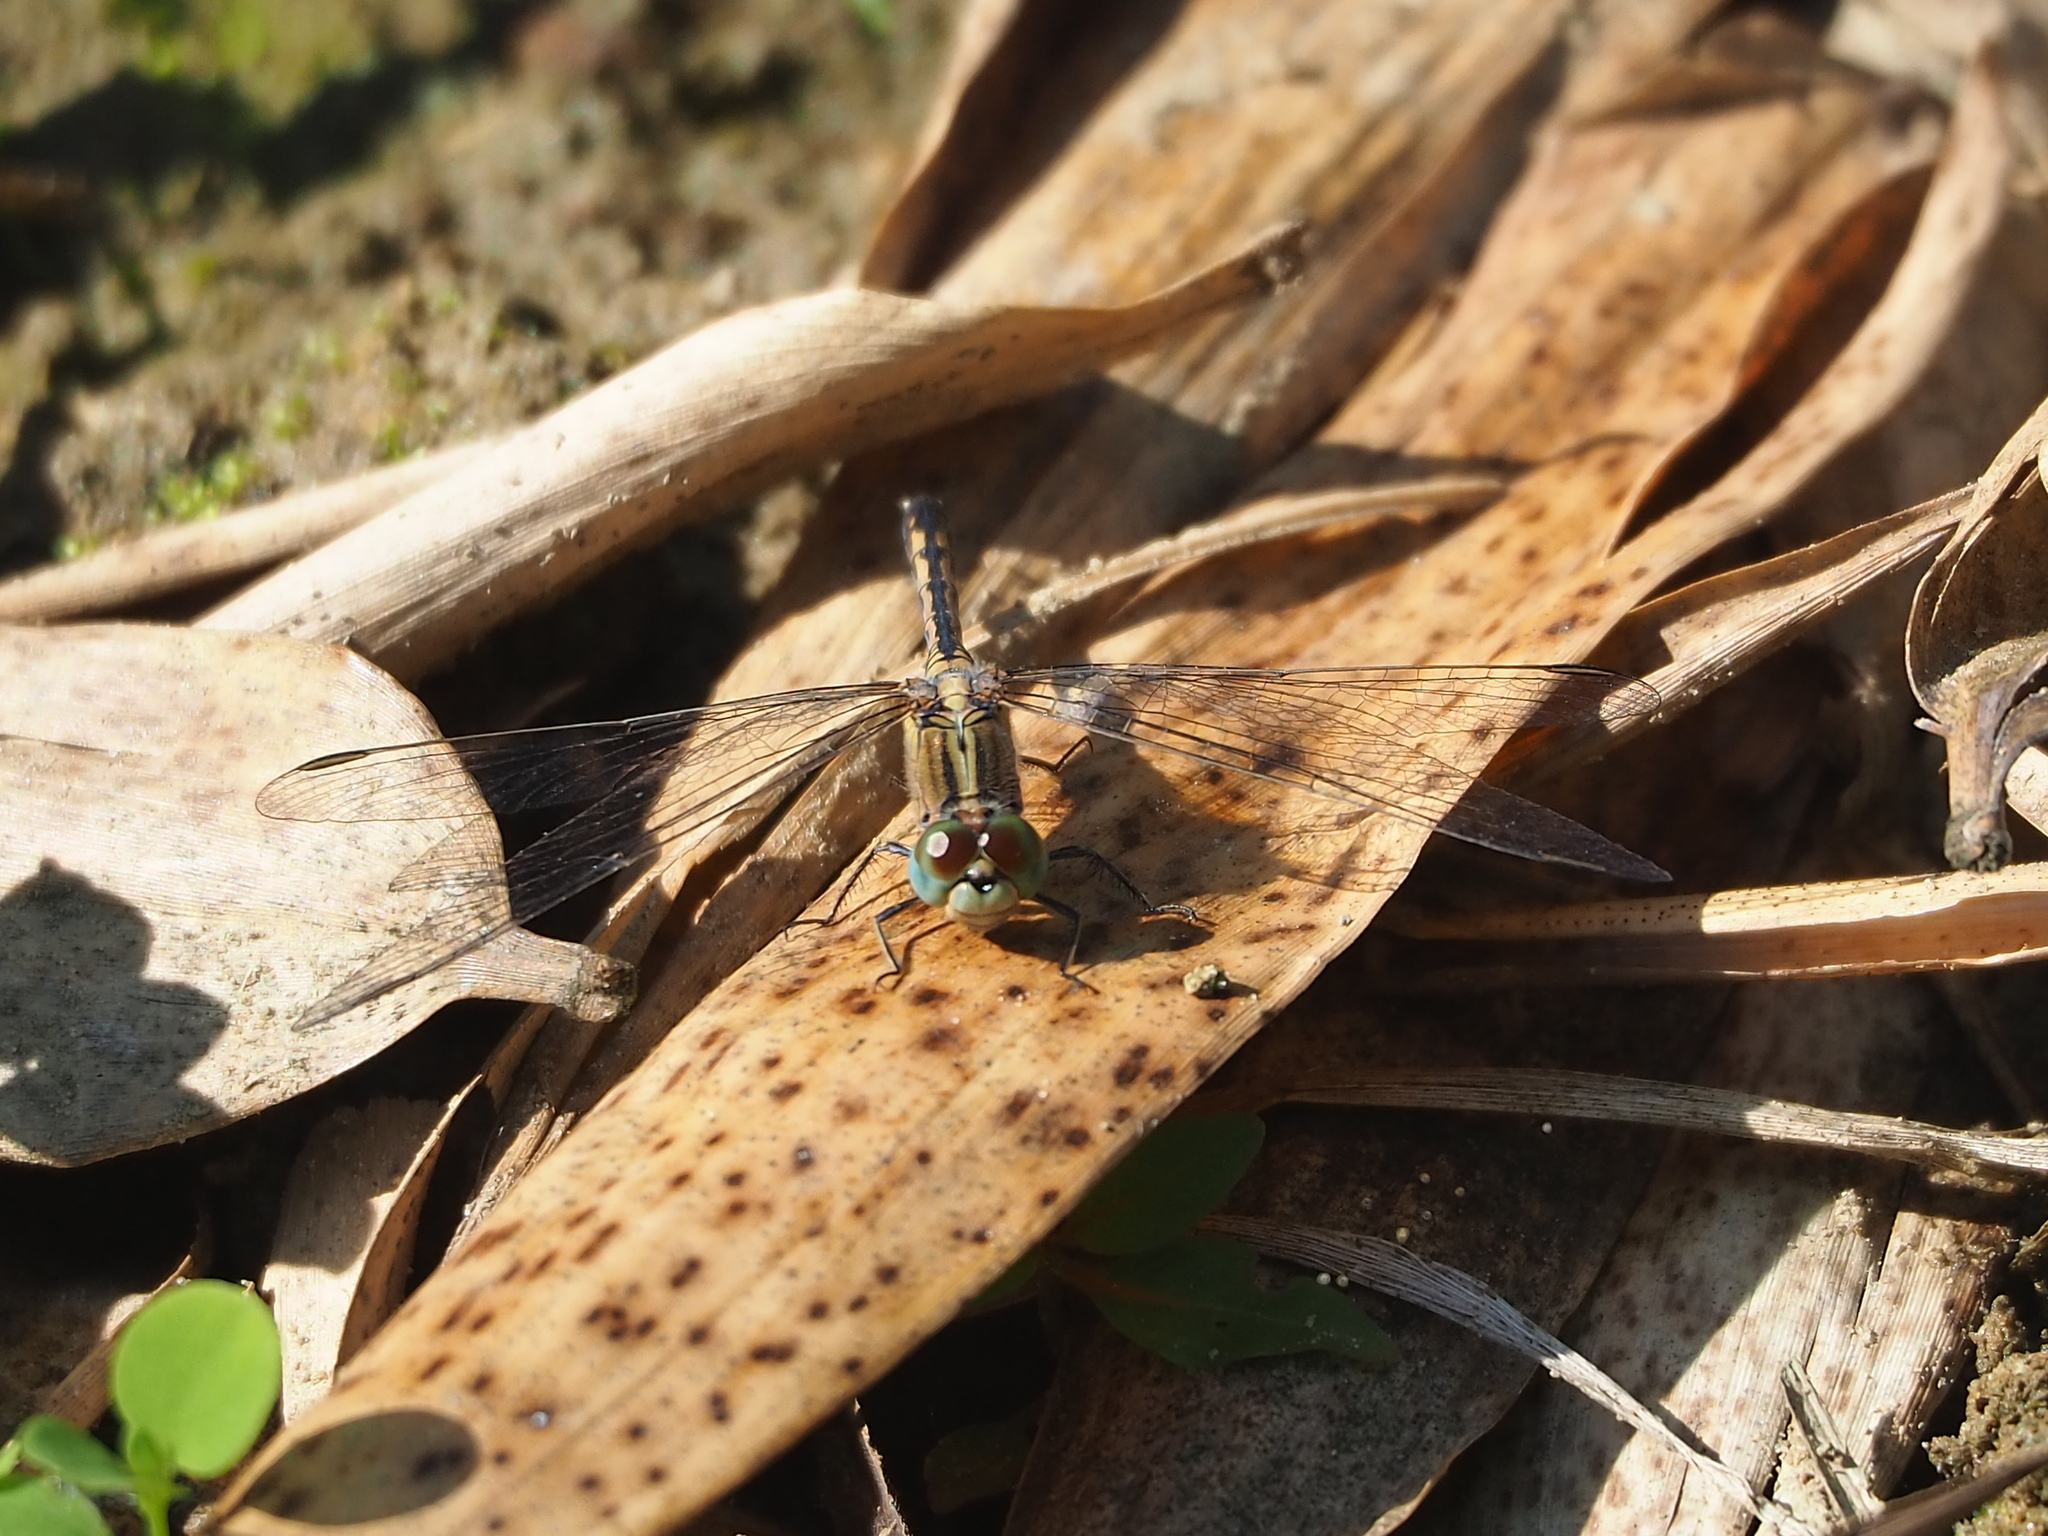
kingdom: Animalia
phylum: Arthropoda
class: Insecta
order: Odonata
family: Libellulidae
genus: Diplacodes
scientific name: Diplacodes trivialis
